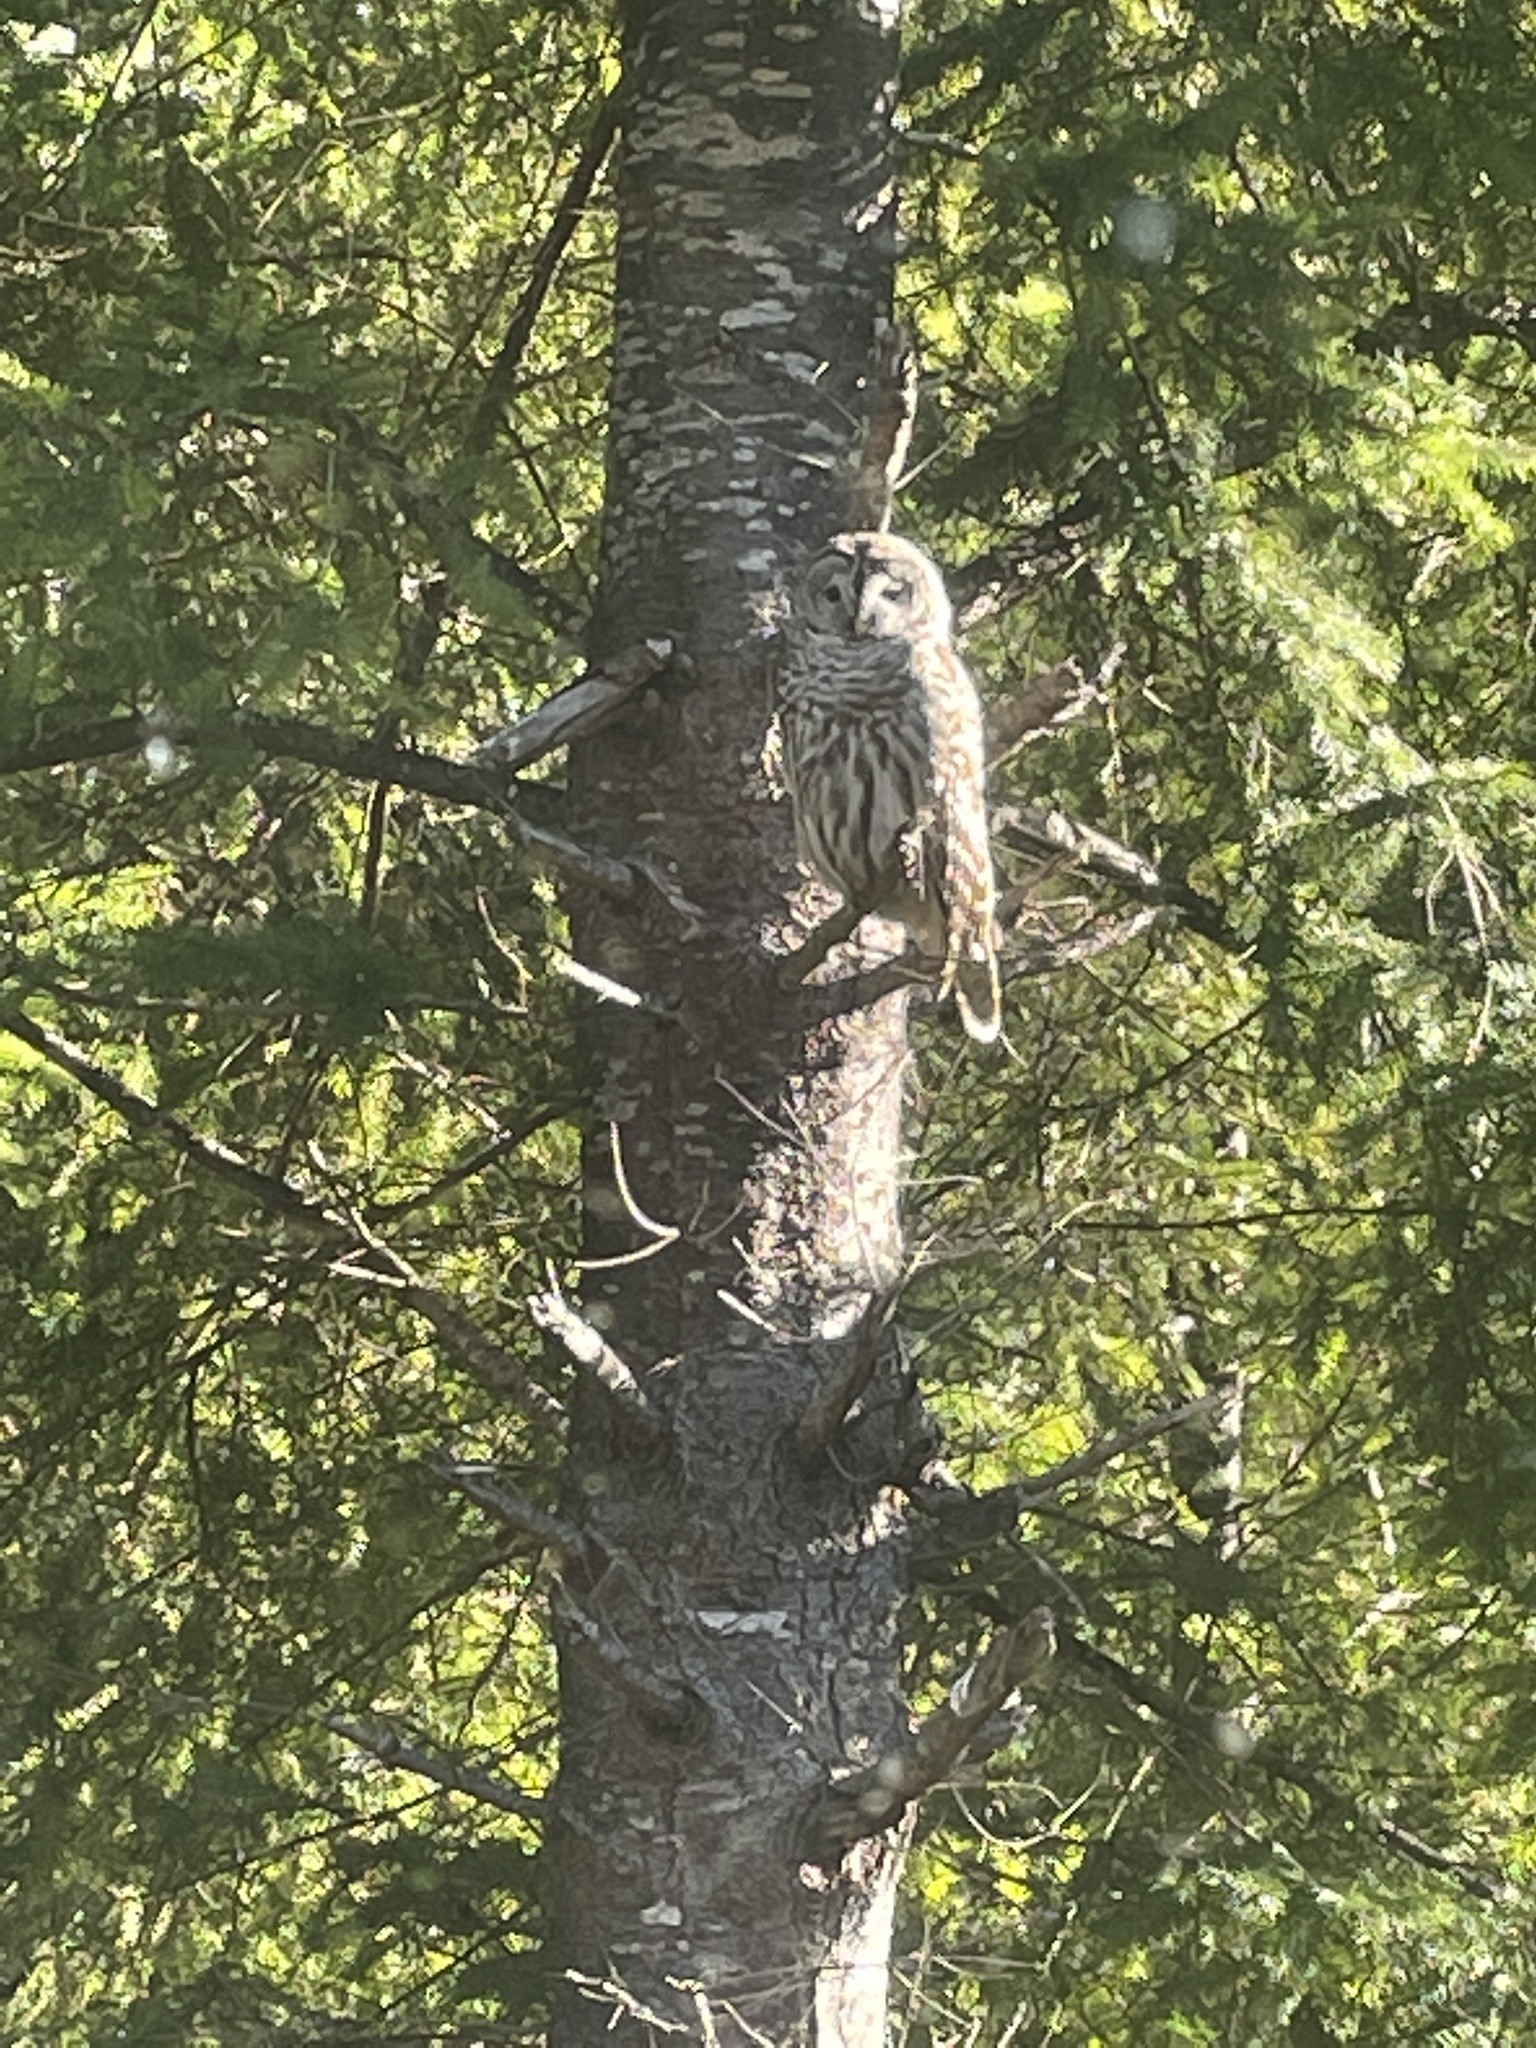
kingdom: Animalia
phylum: Chordata
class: Aves
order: Strigiformes
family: Strigidae
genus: Strix
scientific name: Strix varia
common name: Barred owl
